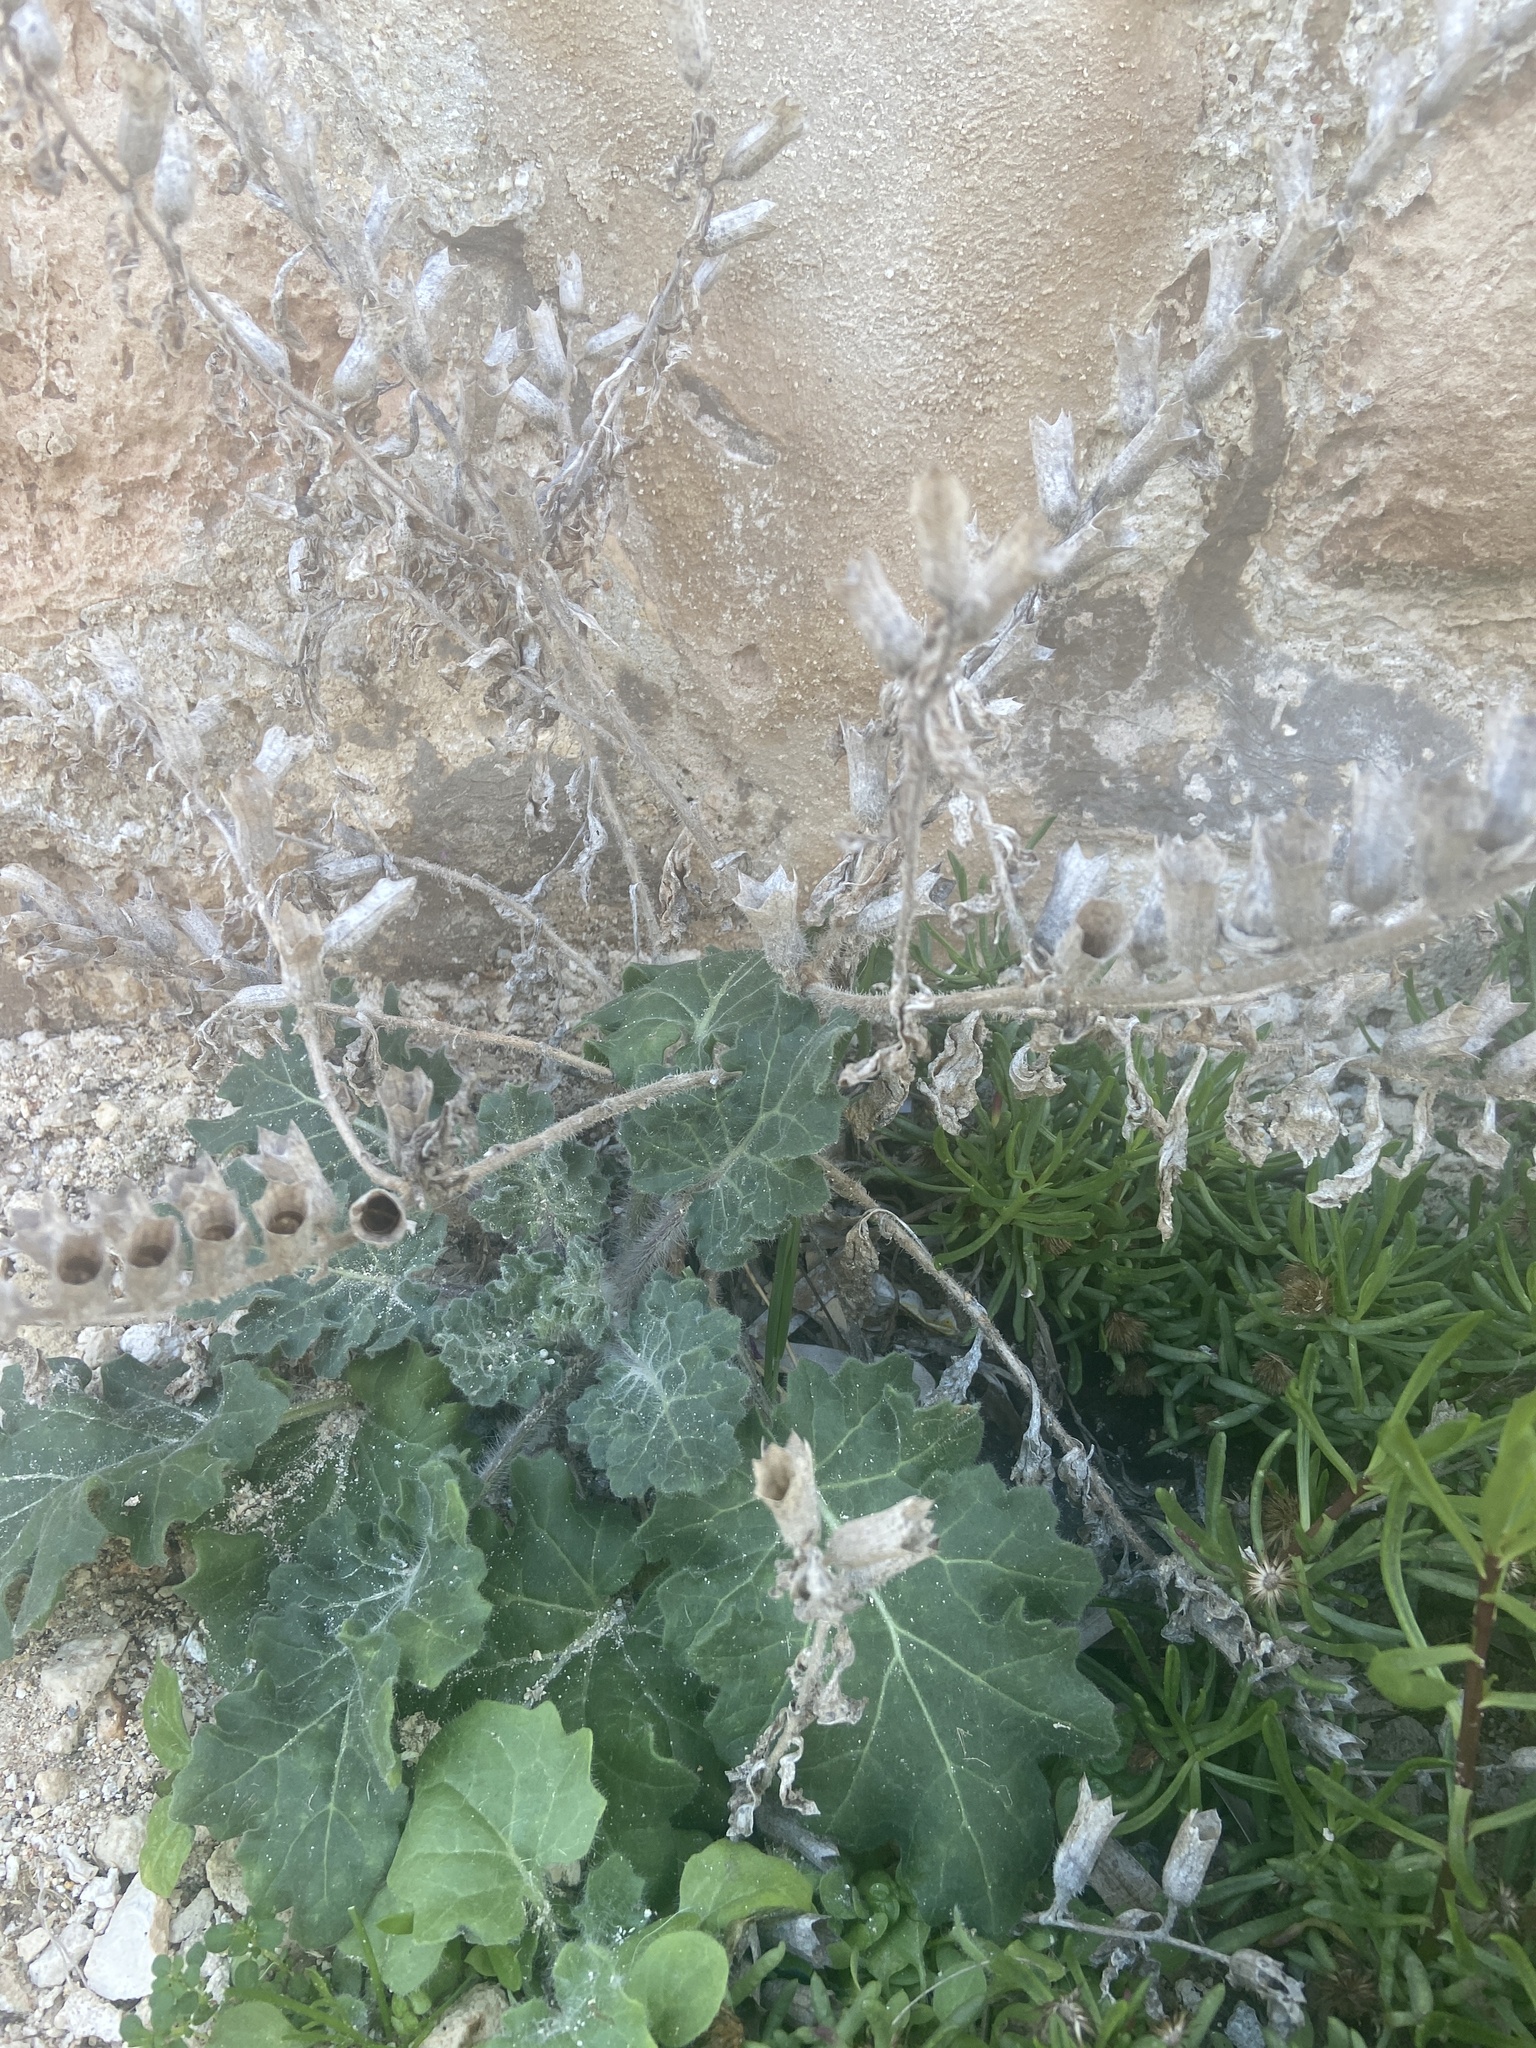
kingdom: Plantae
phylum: Tracheophyta
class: Magnoliopsida
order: Solanales
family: Solanaceae
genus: Hyoscyamus
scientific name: Hyoscyamus albus
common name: White henbane
